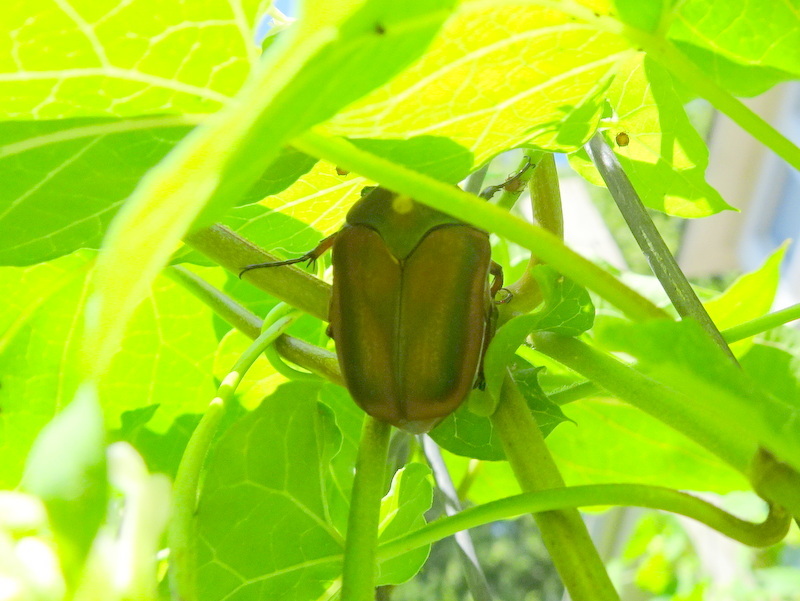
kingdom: Animalia
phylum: Arthropoda
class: Insecta
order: Coleoptera
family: Scarabaeidae
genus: Cotinis
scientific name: Cotinis nitida
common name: Common green june beetle
